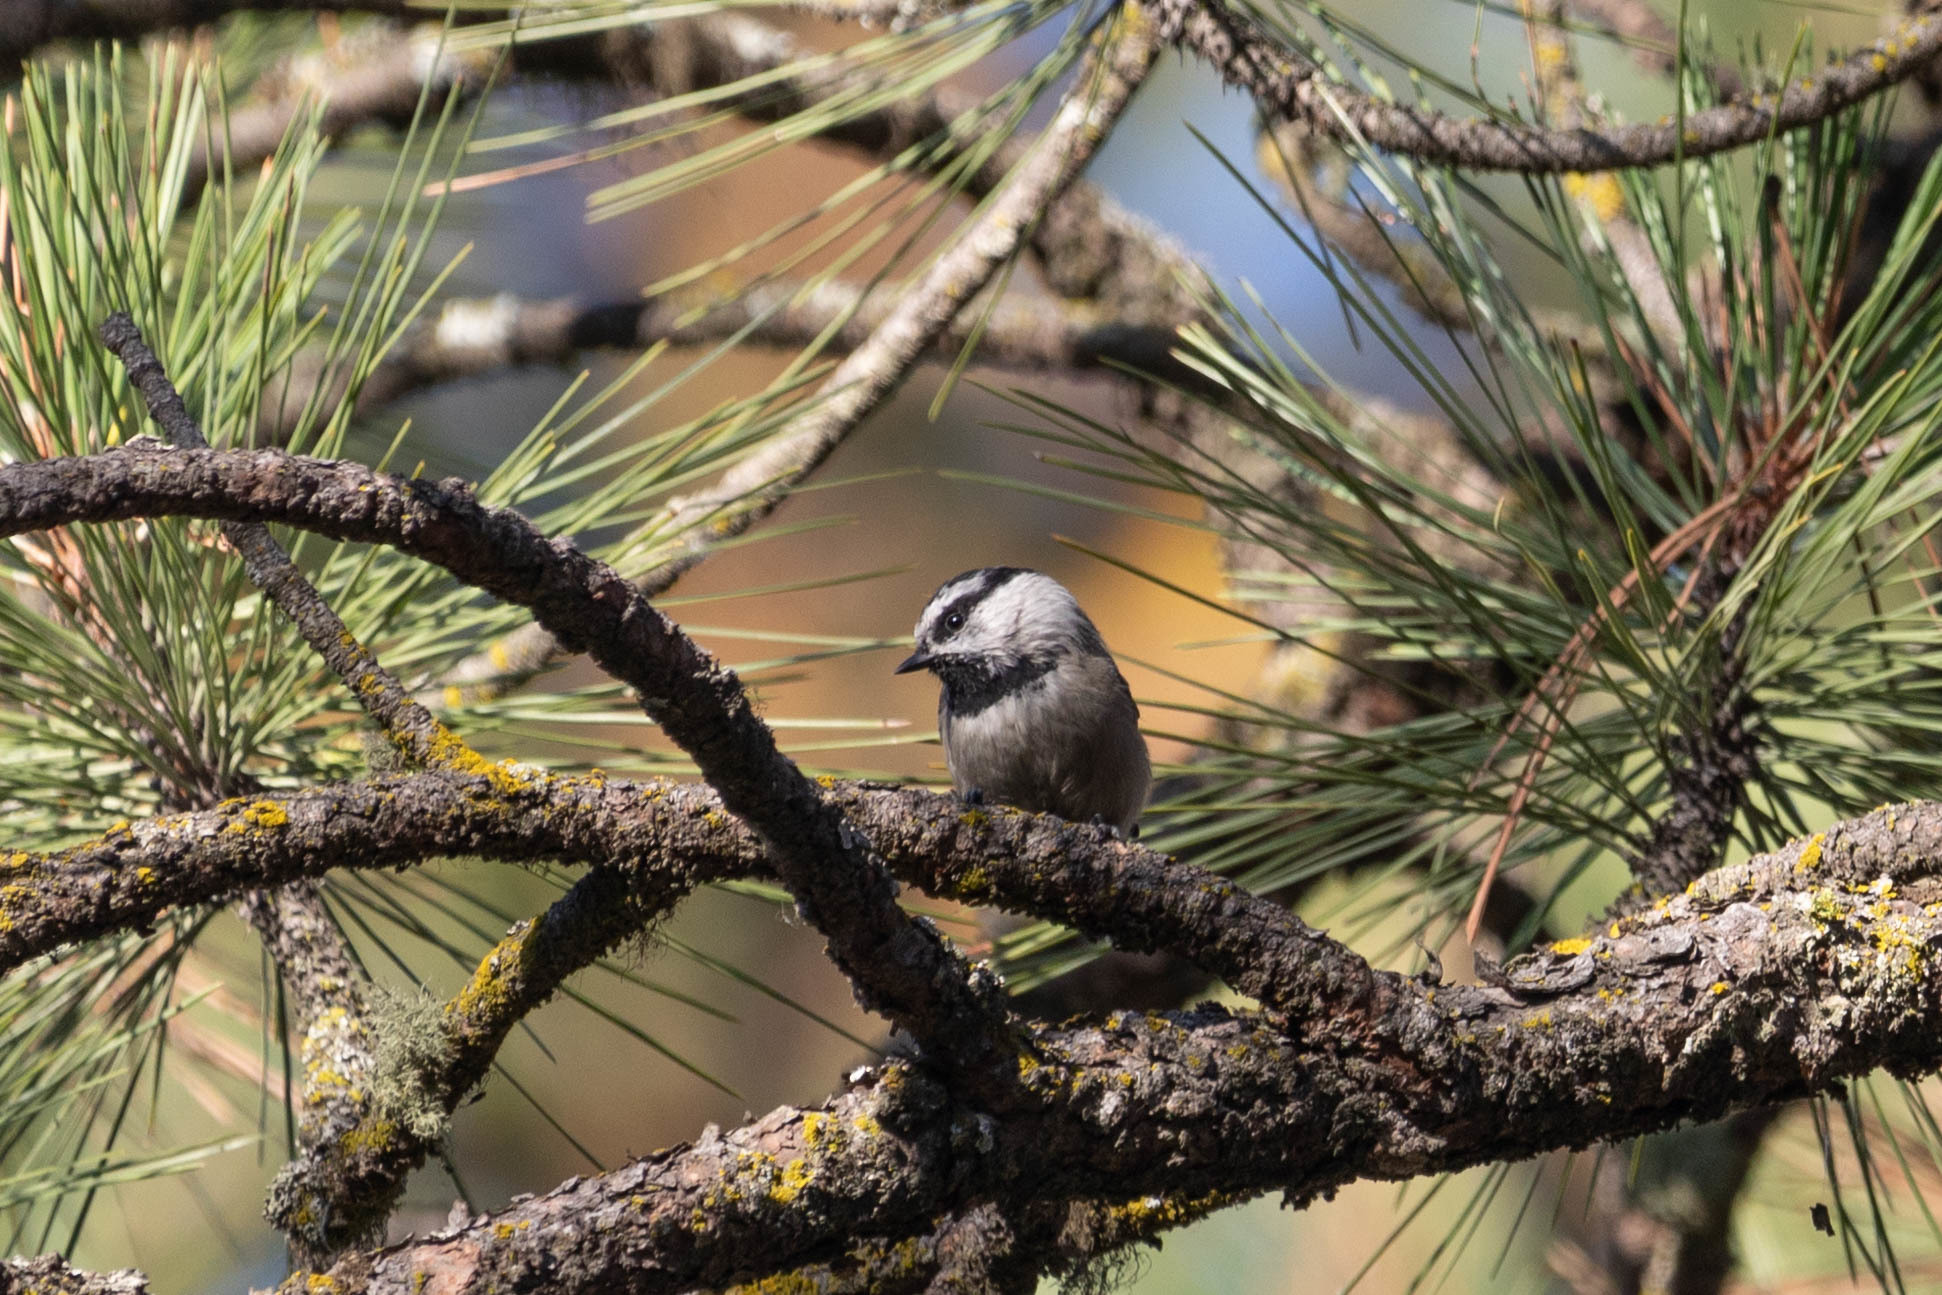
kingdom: Animalia
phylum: Chordata
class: Aves
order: Passeriformes
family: Paridae
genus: Poecile
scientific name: Poecile gambeli
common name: Mountain chickadee
